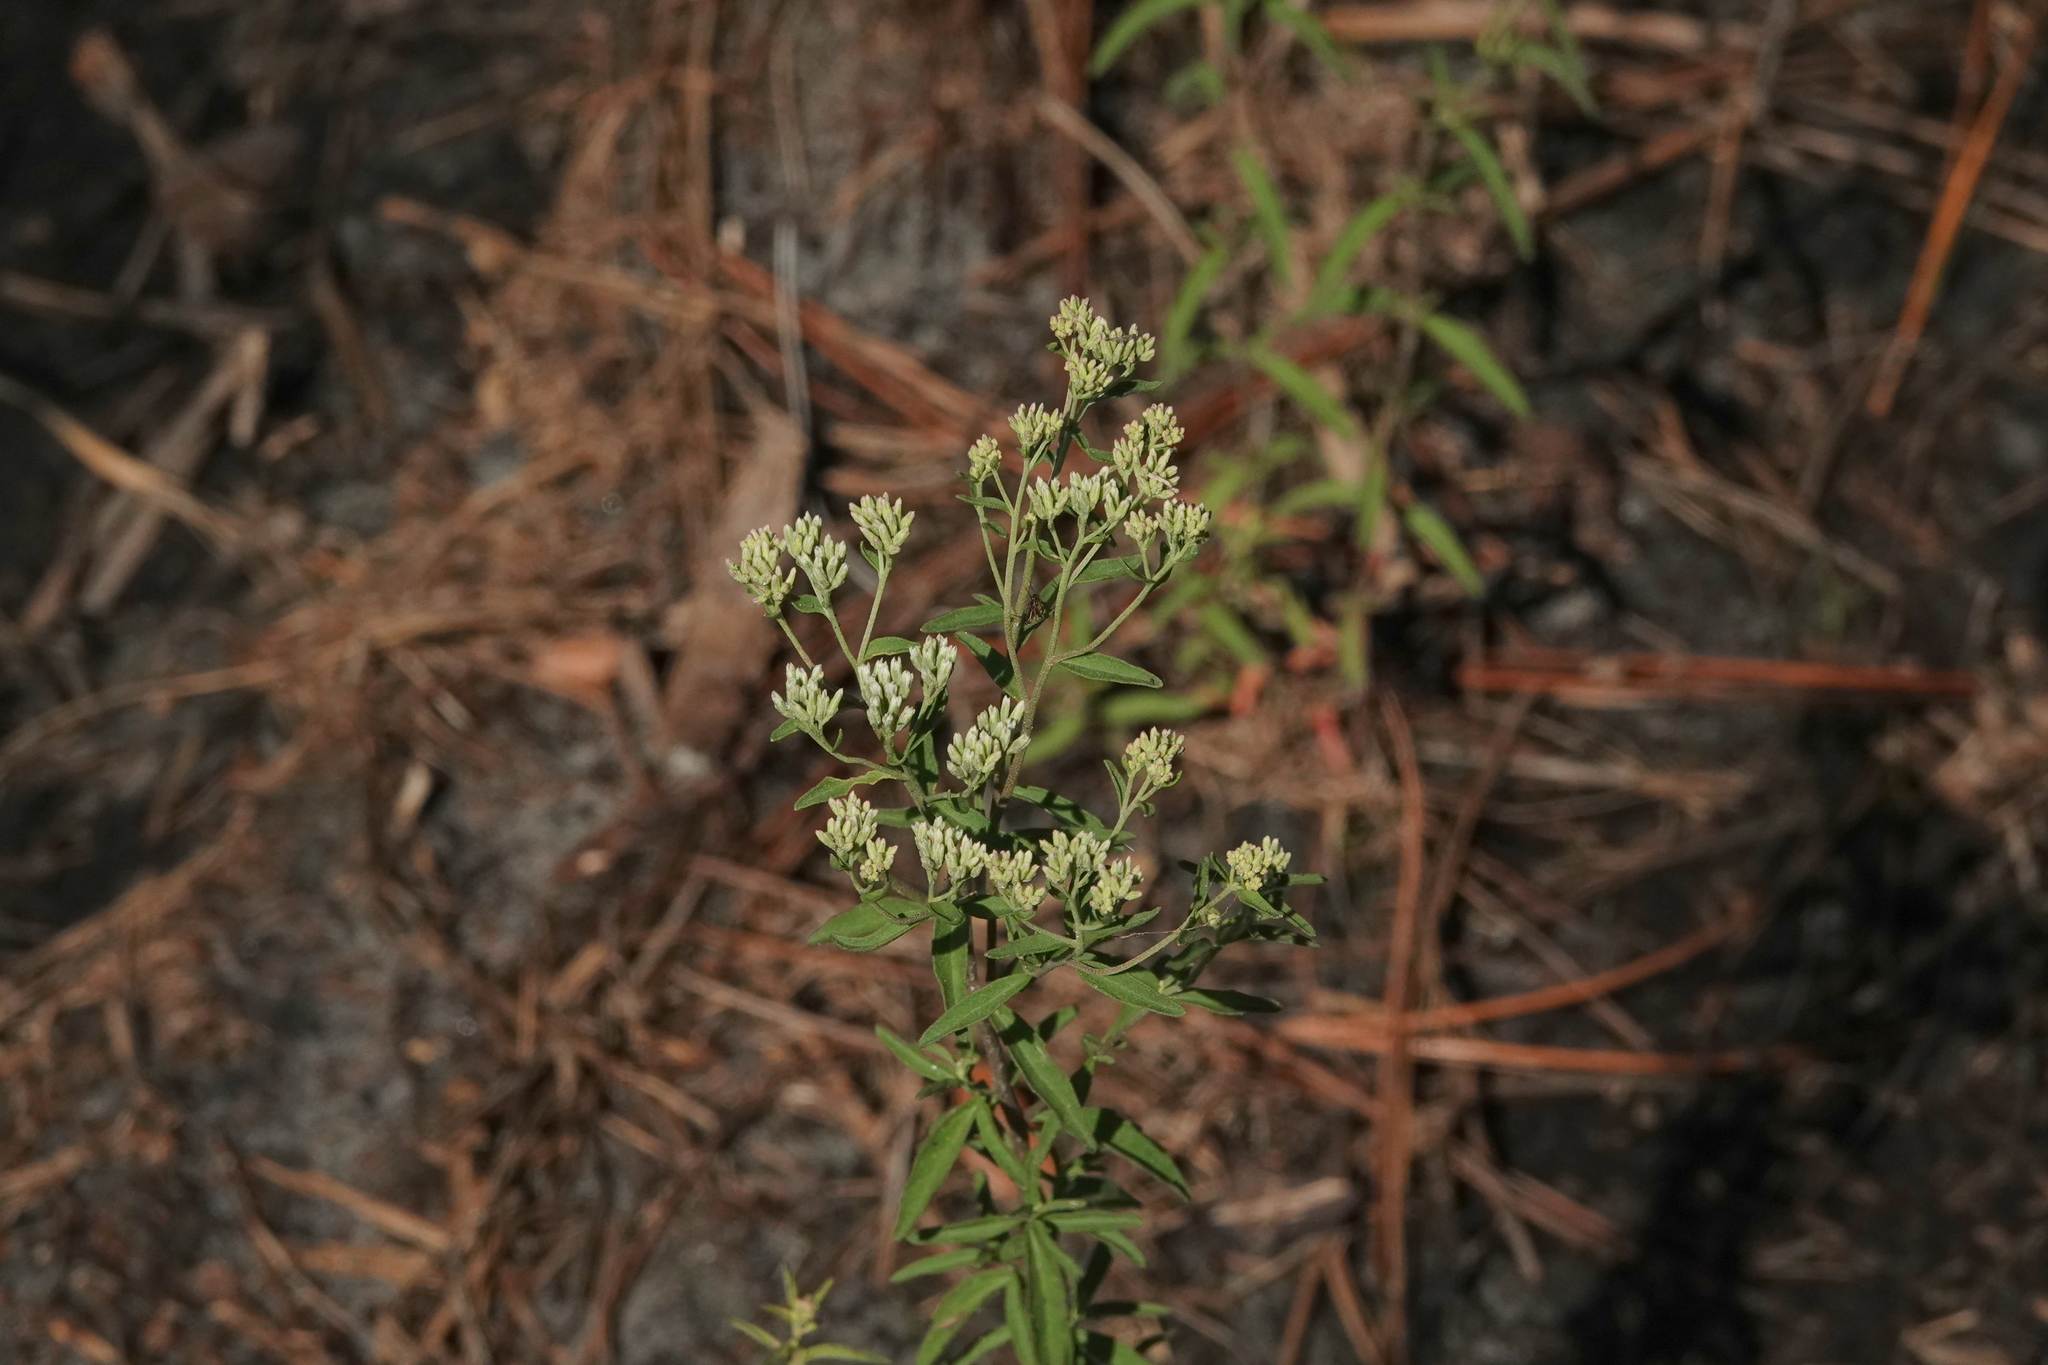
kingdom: Plantae
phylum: Tracheophyta
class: Magnoliopsida
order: Asterales
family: Asteraceae
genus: Eupatorium
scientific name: Eupatorium mohrii
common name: Mohr's thoroughwort
